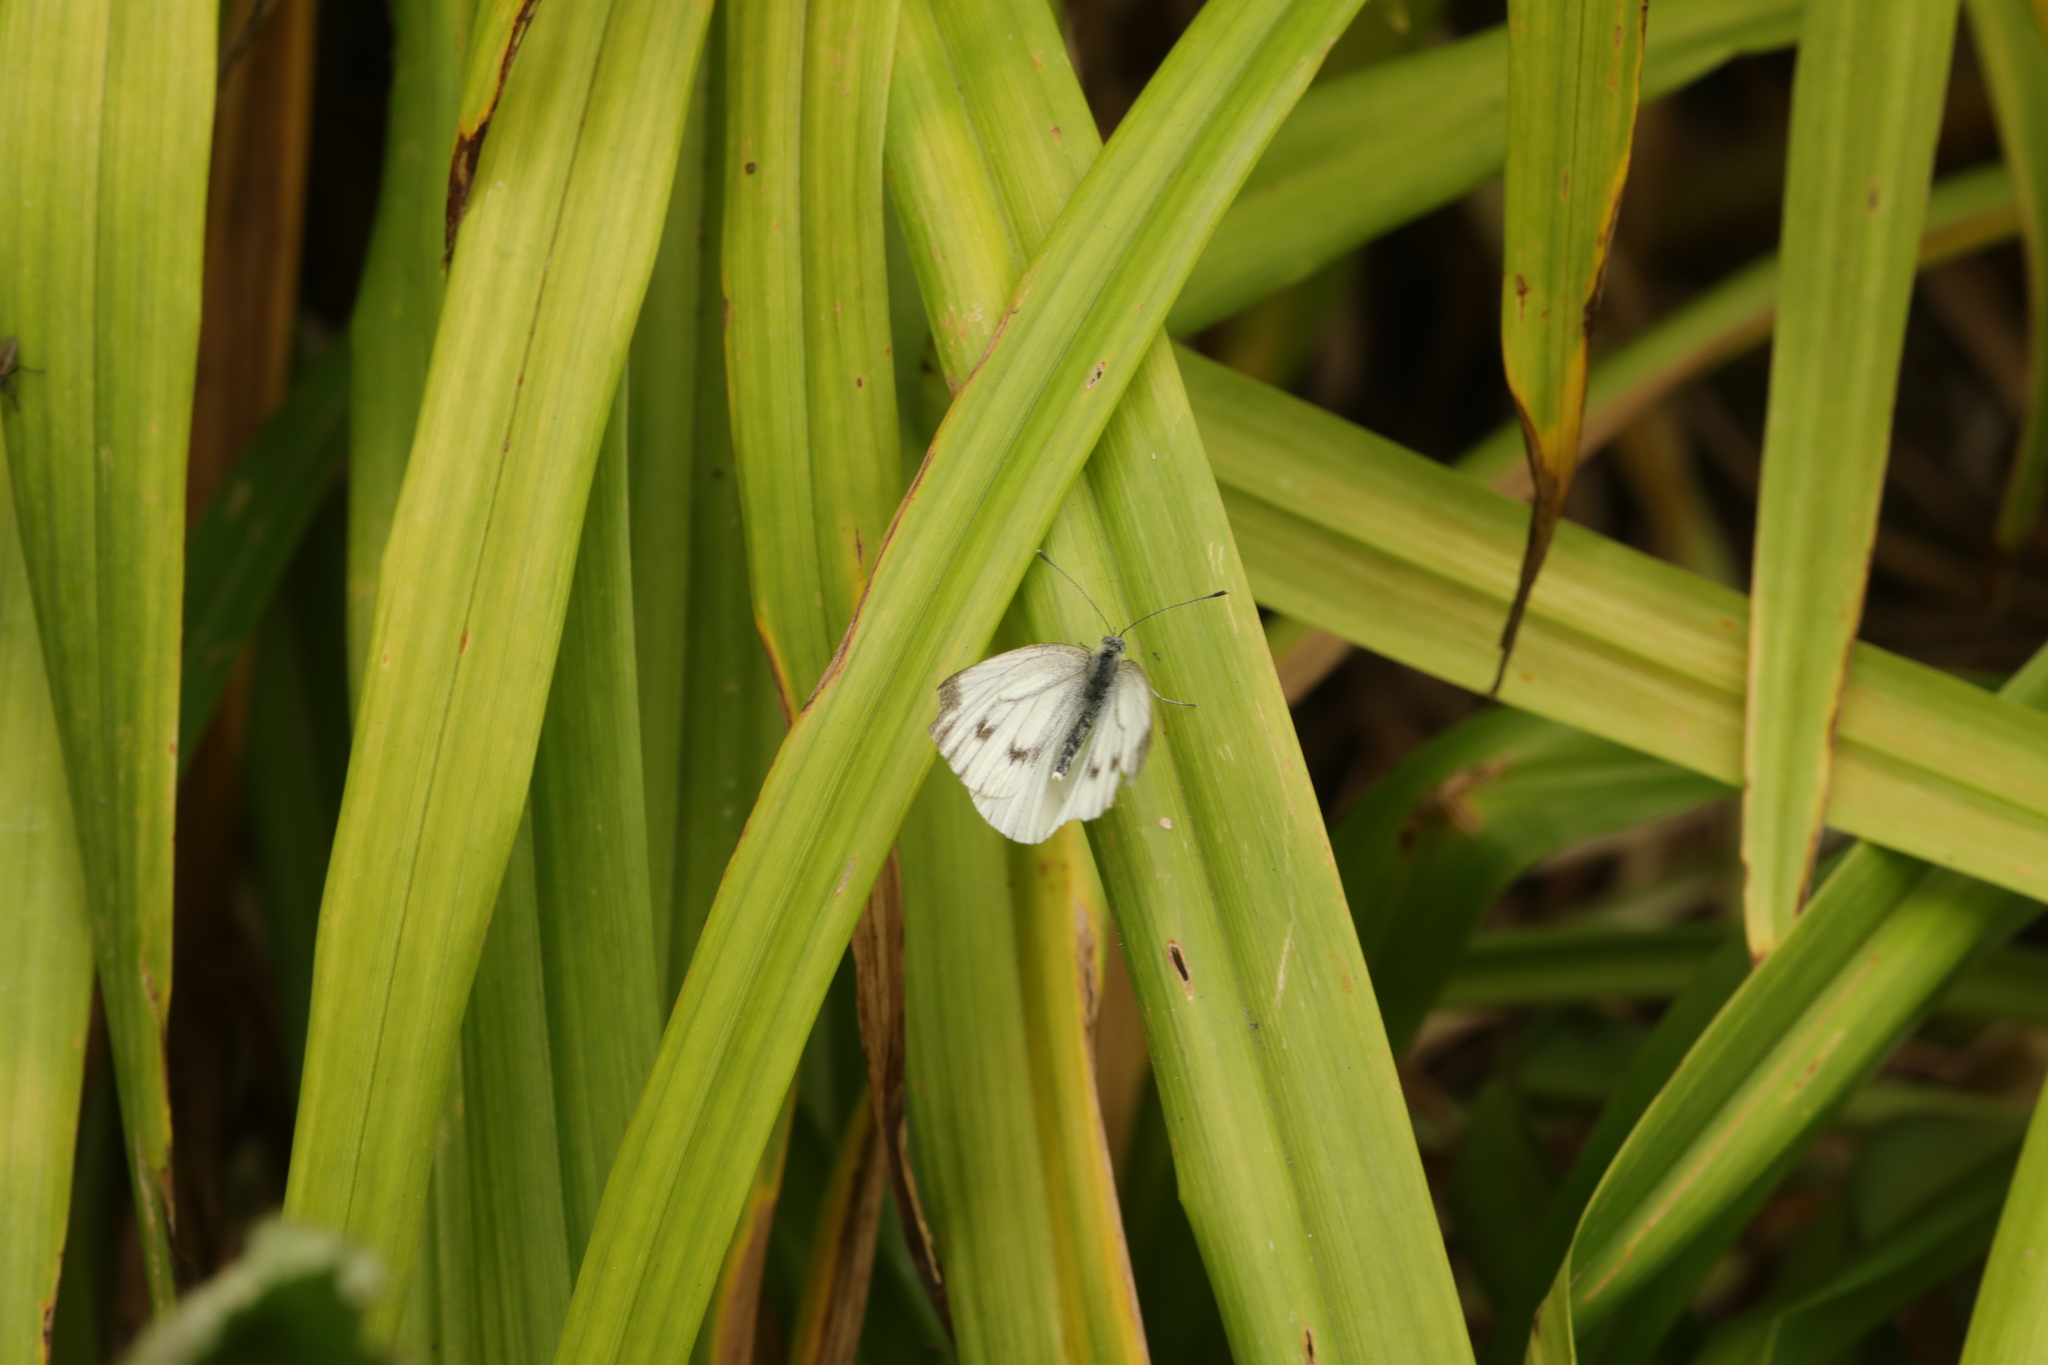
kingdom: Animalia
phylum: Arthropoda
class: Insecta
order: Lepidoptera
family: Pieridae
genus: Pieris
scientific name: Pieris napi
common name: Green-veined white
